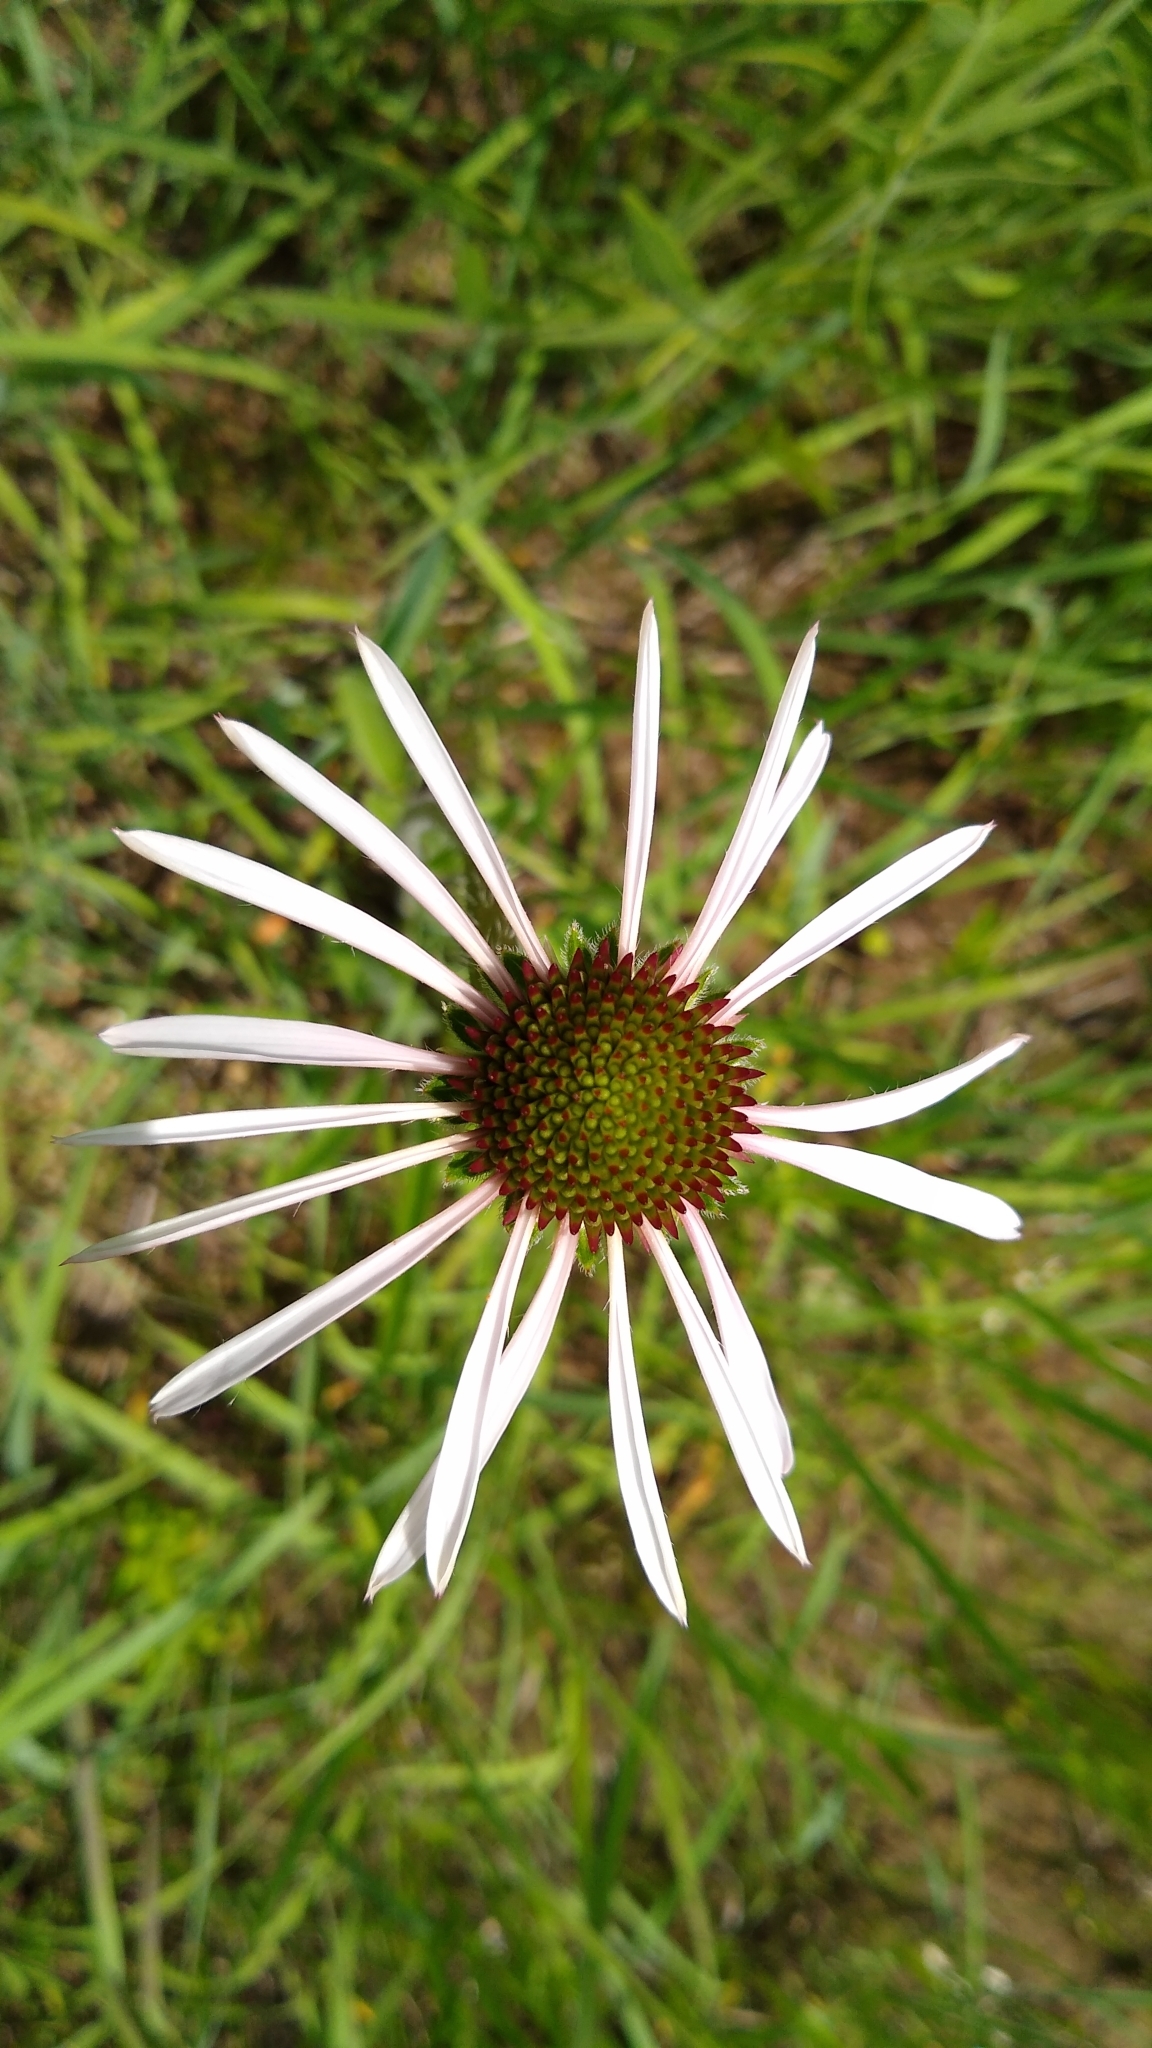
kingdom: Plantae
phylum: Tracheophyta
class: Magnoliopsida
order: Asterales
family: Asteraceae
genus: Echinacea
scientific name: Echinacea pallida
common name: Pale echinacea
